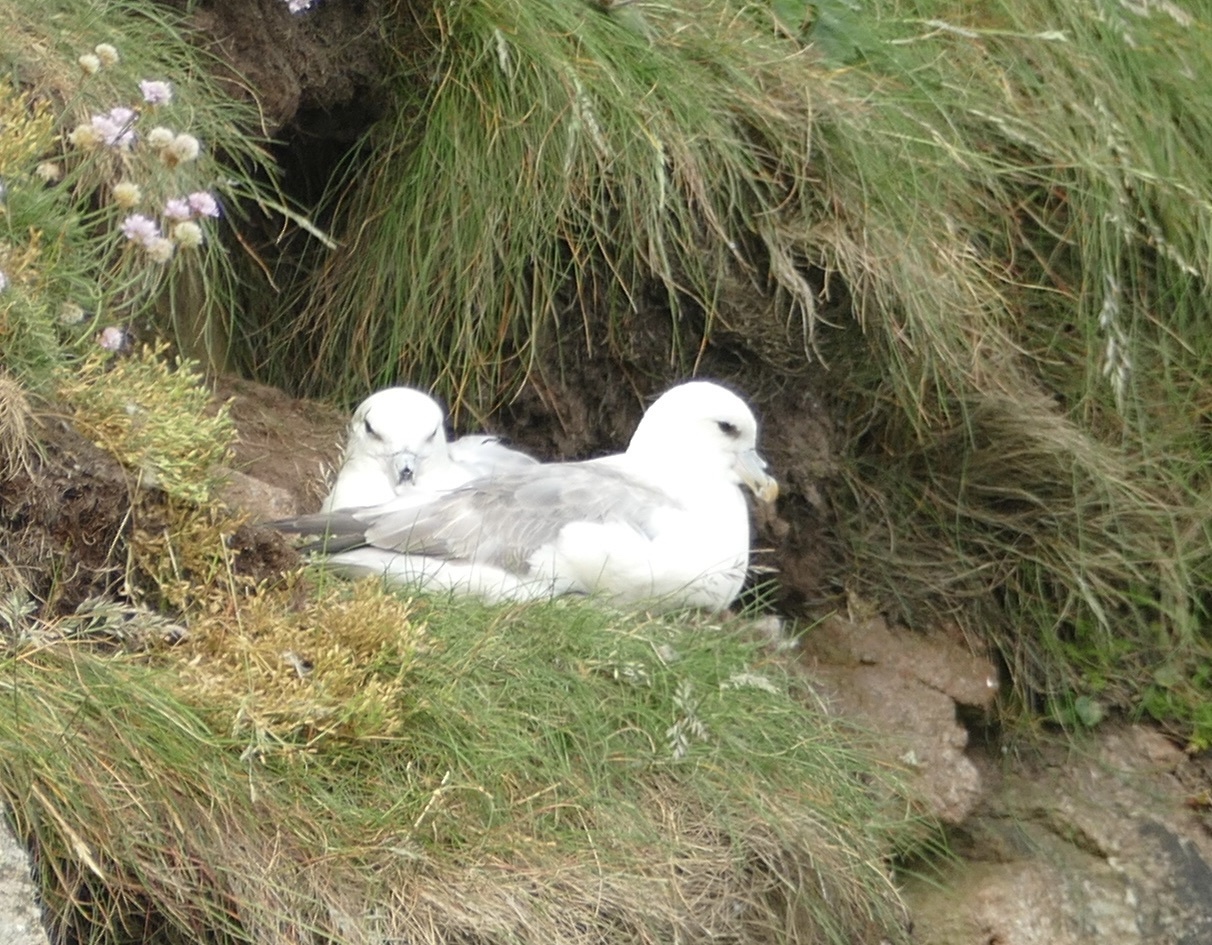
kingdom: Animalia
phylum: Chordata
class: Aves
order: Procellariiformes
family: Procellariidae
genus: Fulmarus
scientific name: Fulmarus glacialis
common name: Northern fulmar
